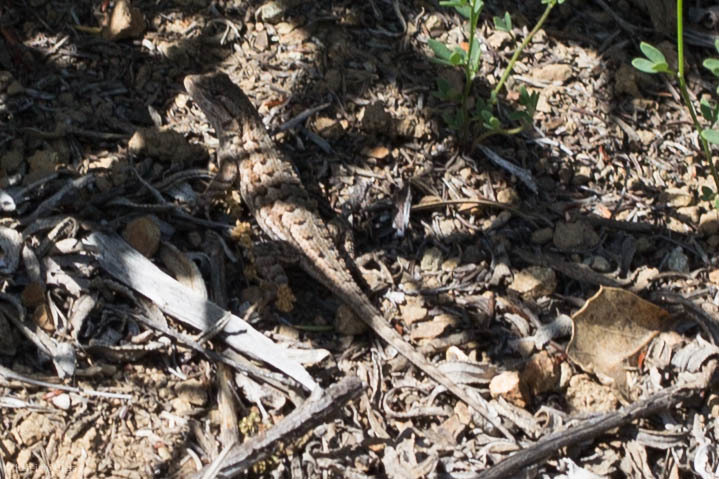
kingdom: Animalia
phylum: Chordata
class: Squamata
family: Phrynosomatidae
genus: Sceloporus
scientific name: Sceloporus occidentalis
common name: Western fence lizard
